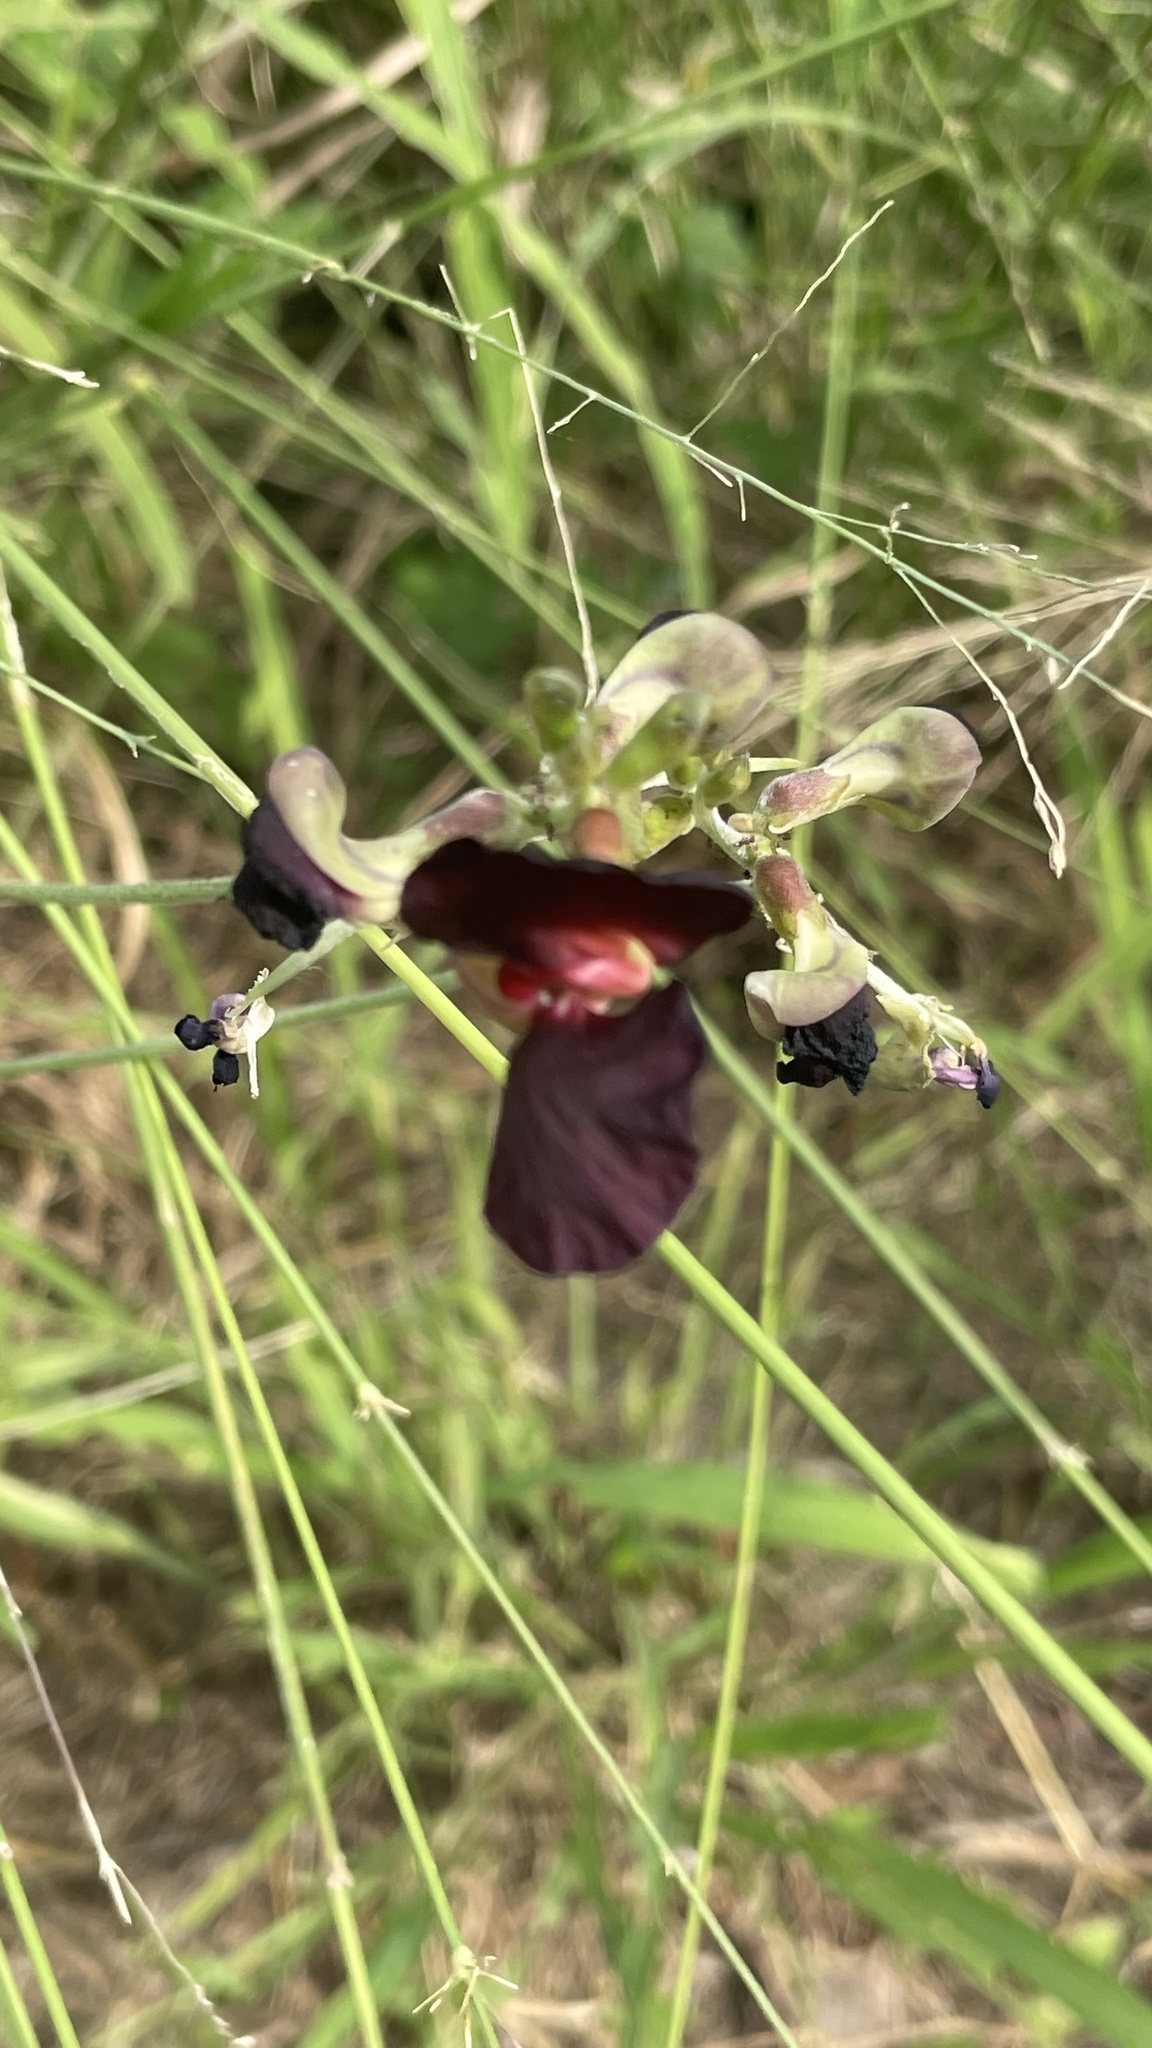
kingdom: Plantae
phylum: Tracheophyta
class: Magnoliopsida
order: Fabales
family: Fabaceae
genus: Macroptilium
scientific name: Macroptilium atropurpureum
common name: Purple bushbean
